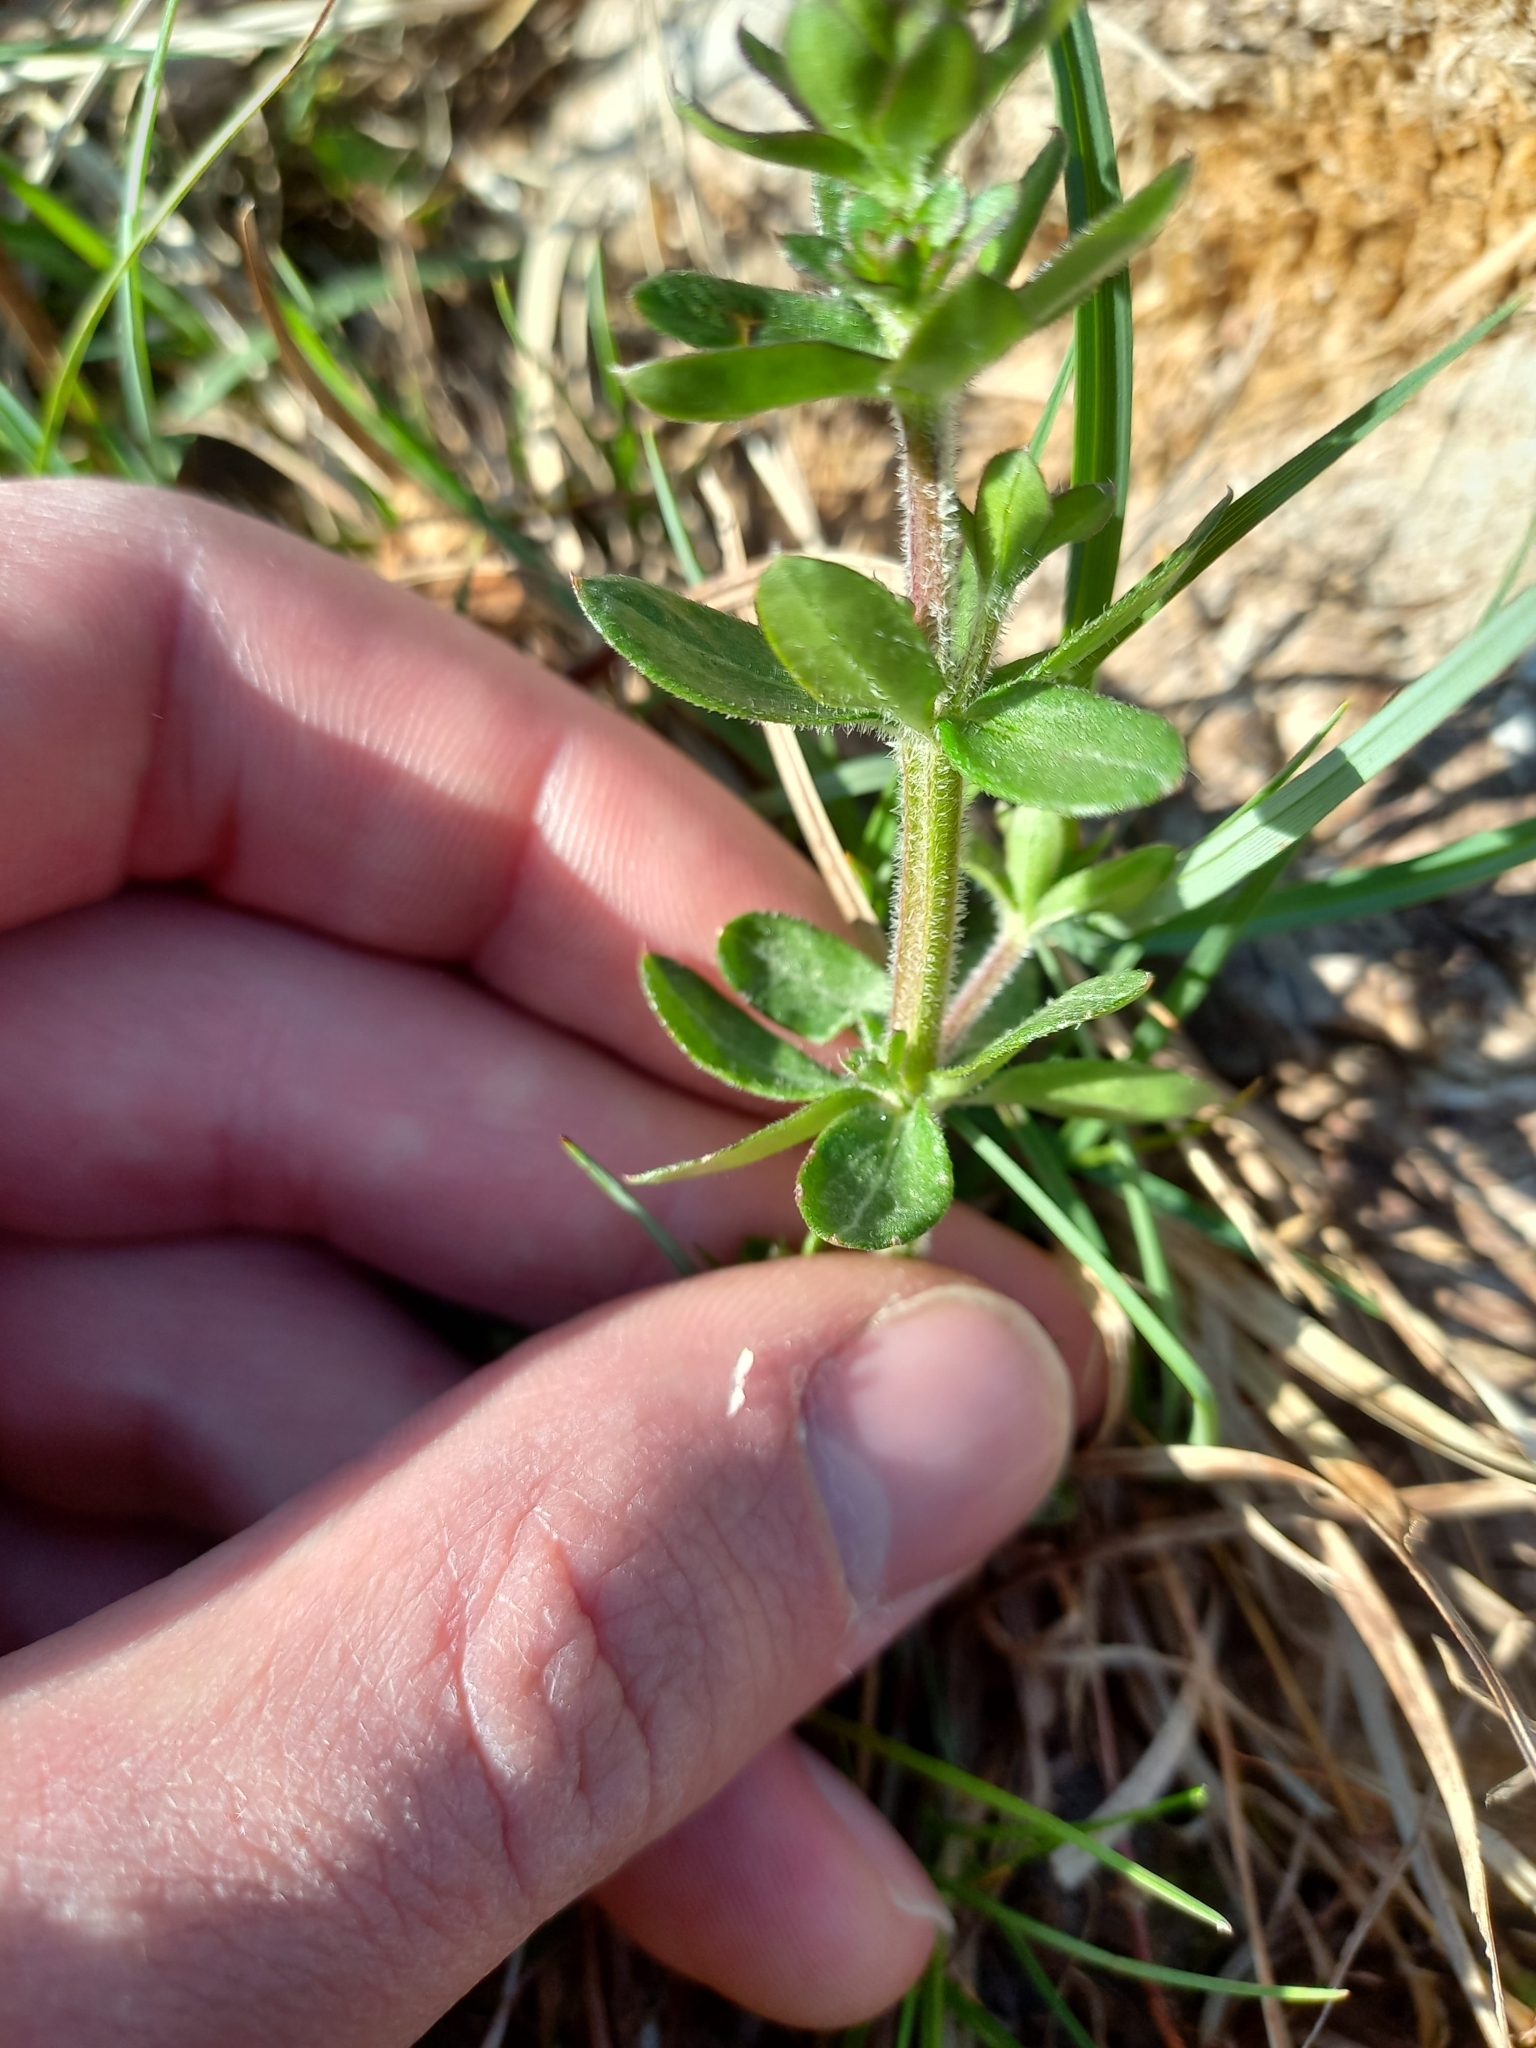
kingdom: Plantae
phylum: Tracheophyta
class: Magnoliopsida
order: Gentianales
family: Rubiaceae
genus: Galium
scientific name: Galium mollugo
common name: Hedge bedstraw
